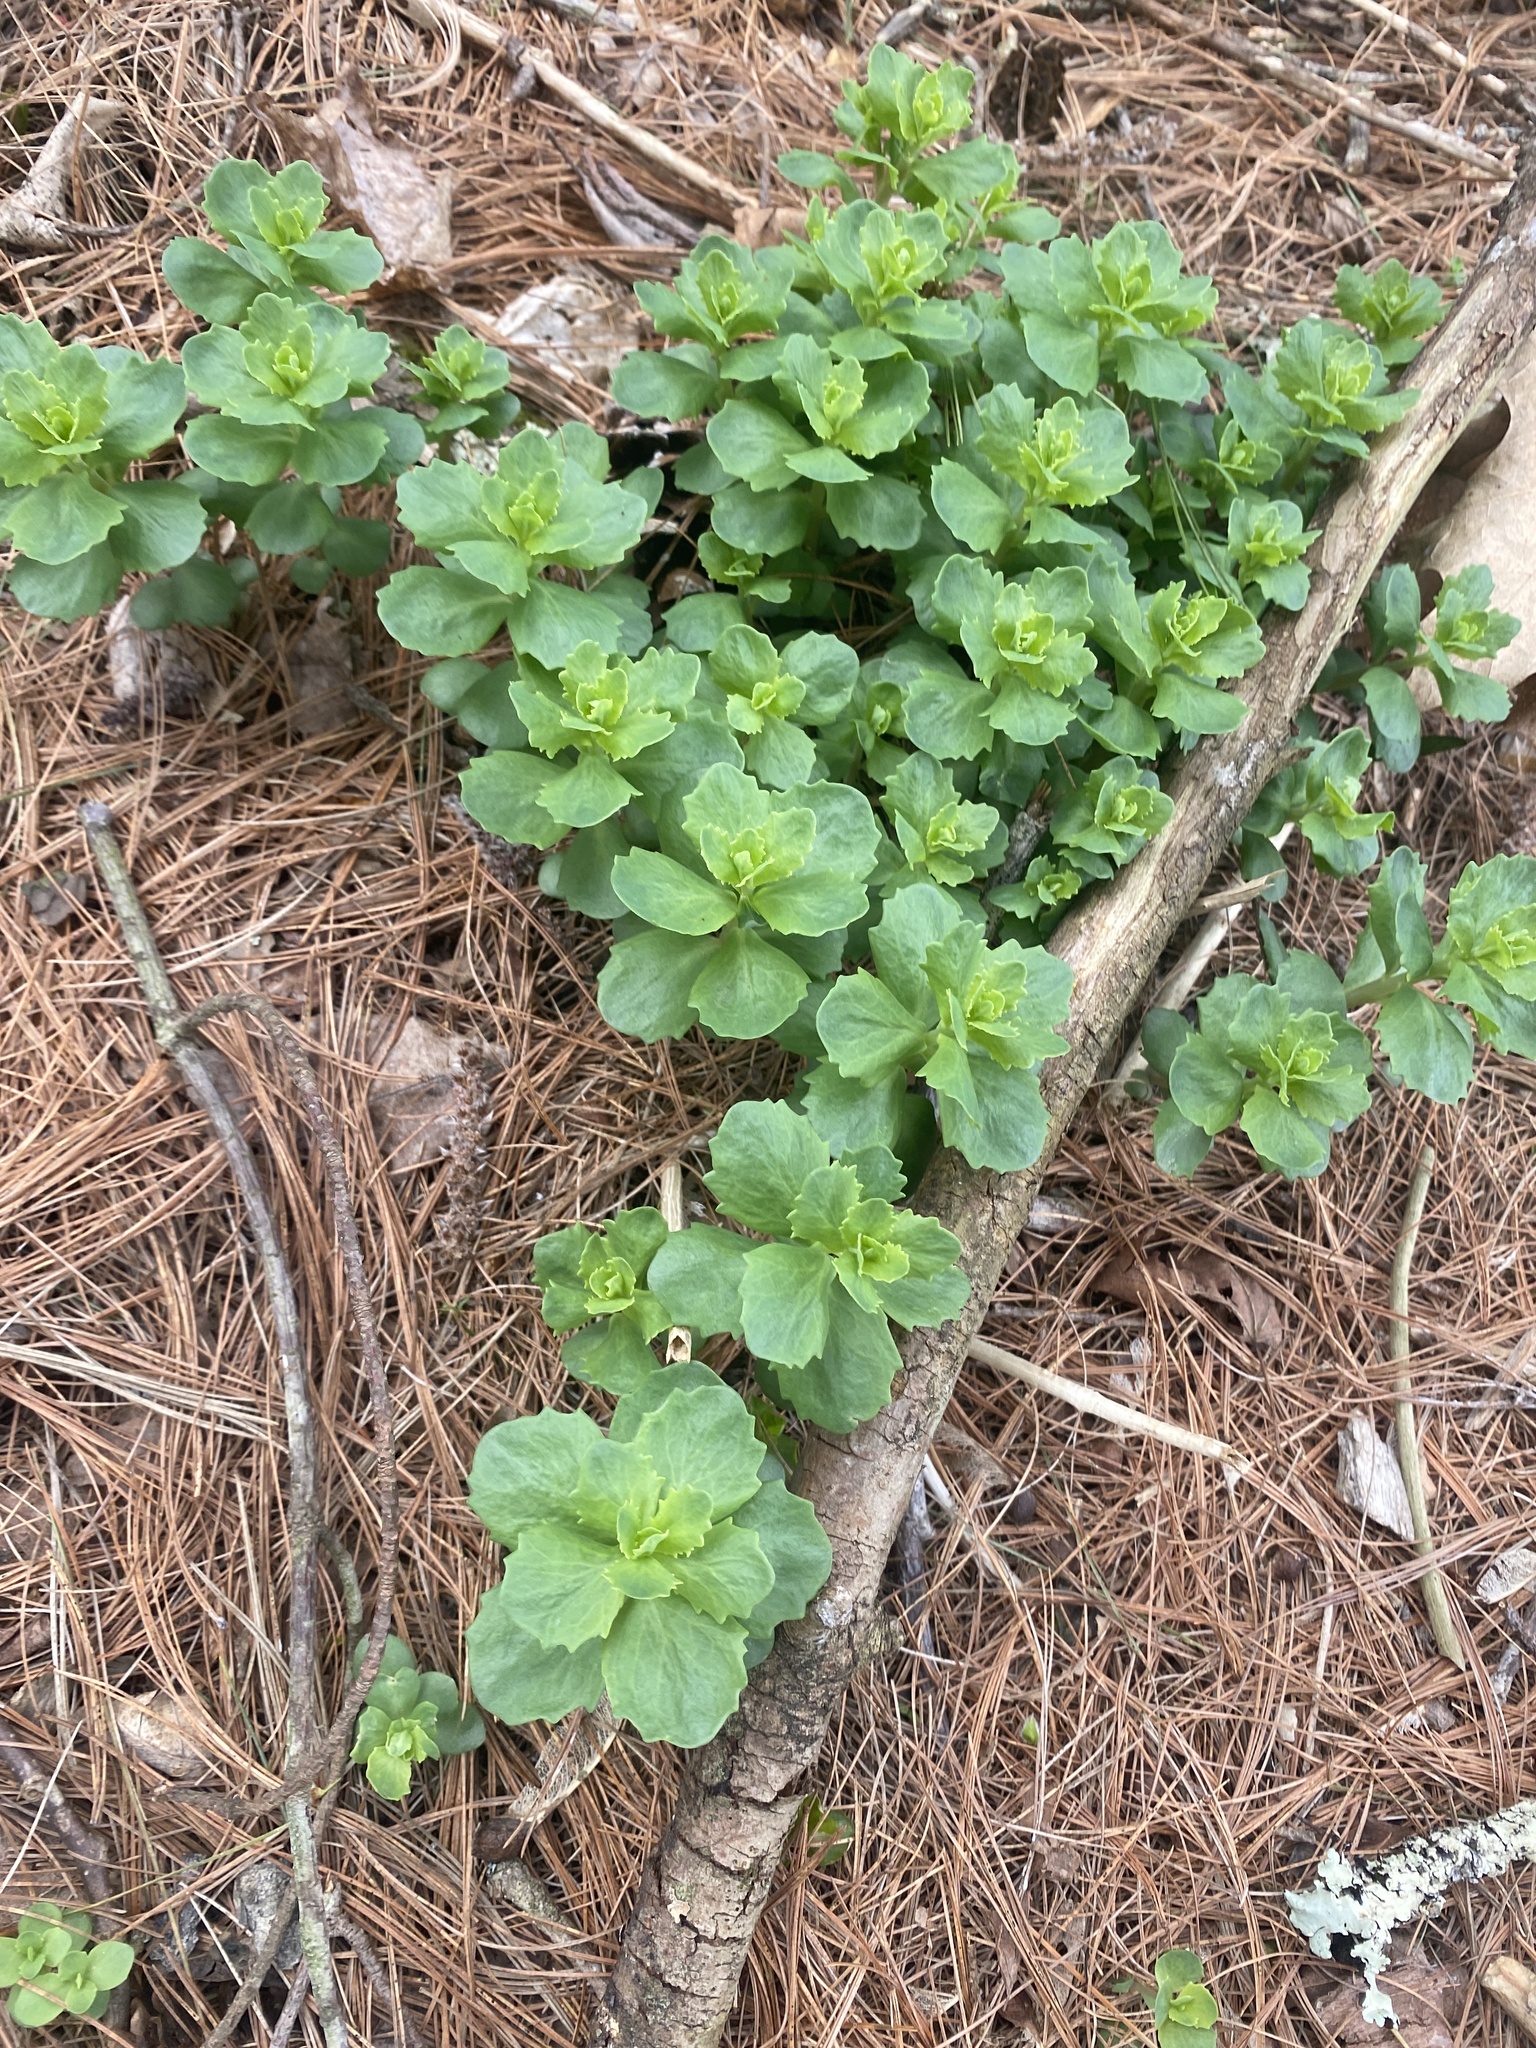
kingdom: Plantae
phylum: Tracheophyta
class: Magnoliopsida
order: Saxifragales
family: Crassulaceae
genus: Hylotelephium
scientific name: Hylotelephium telephium
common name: Live-forever
